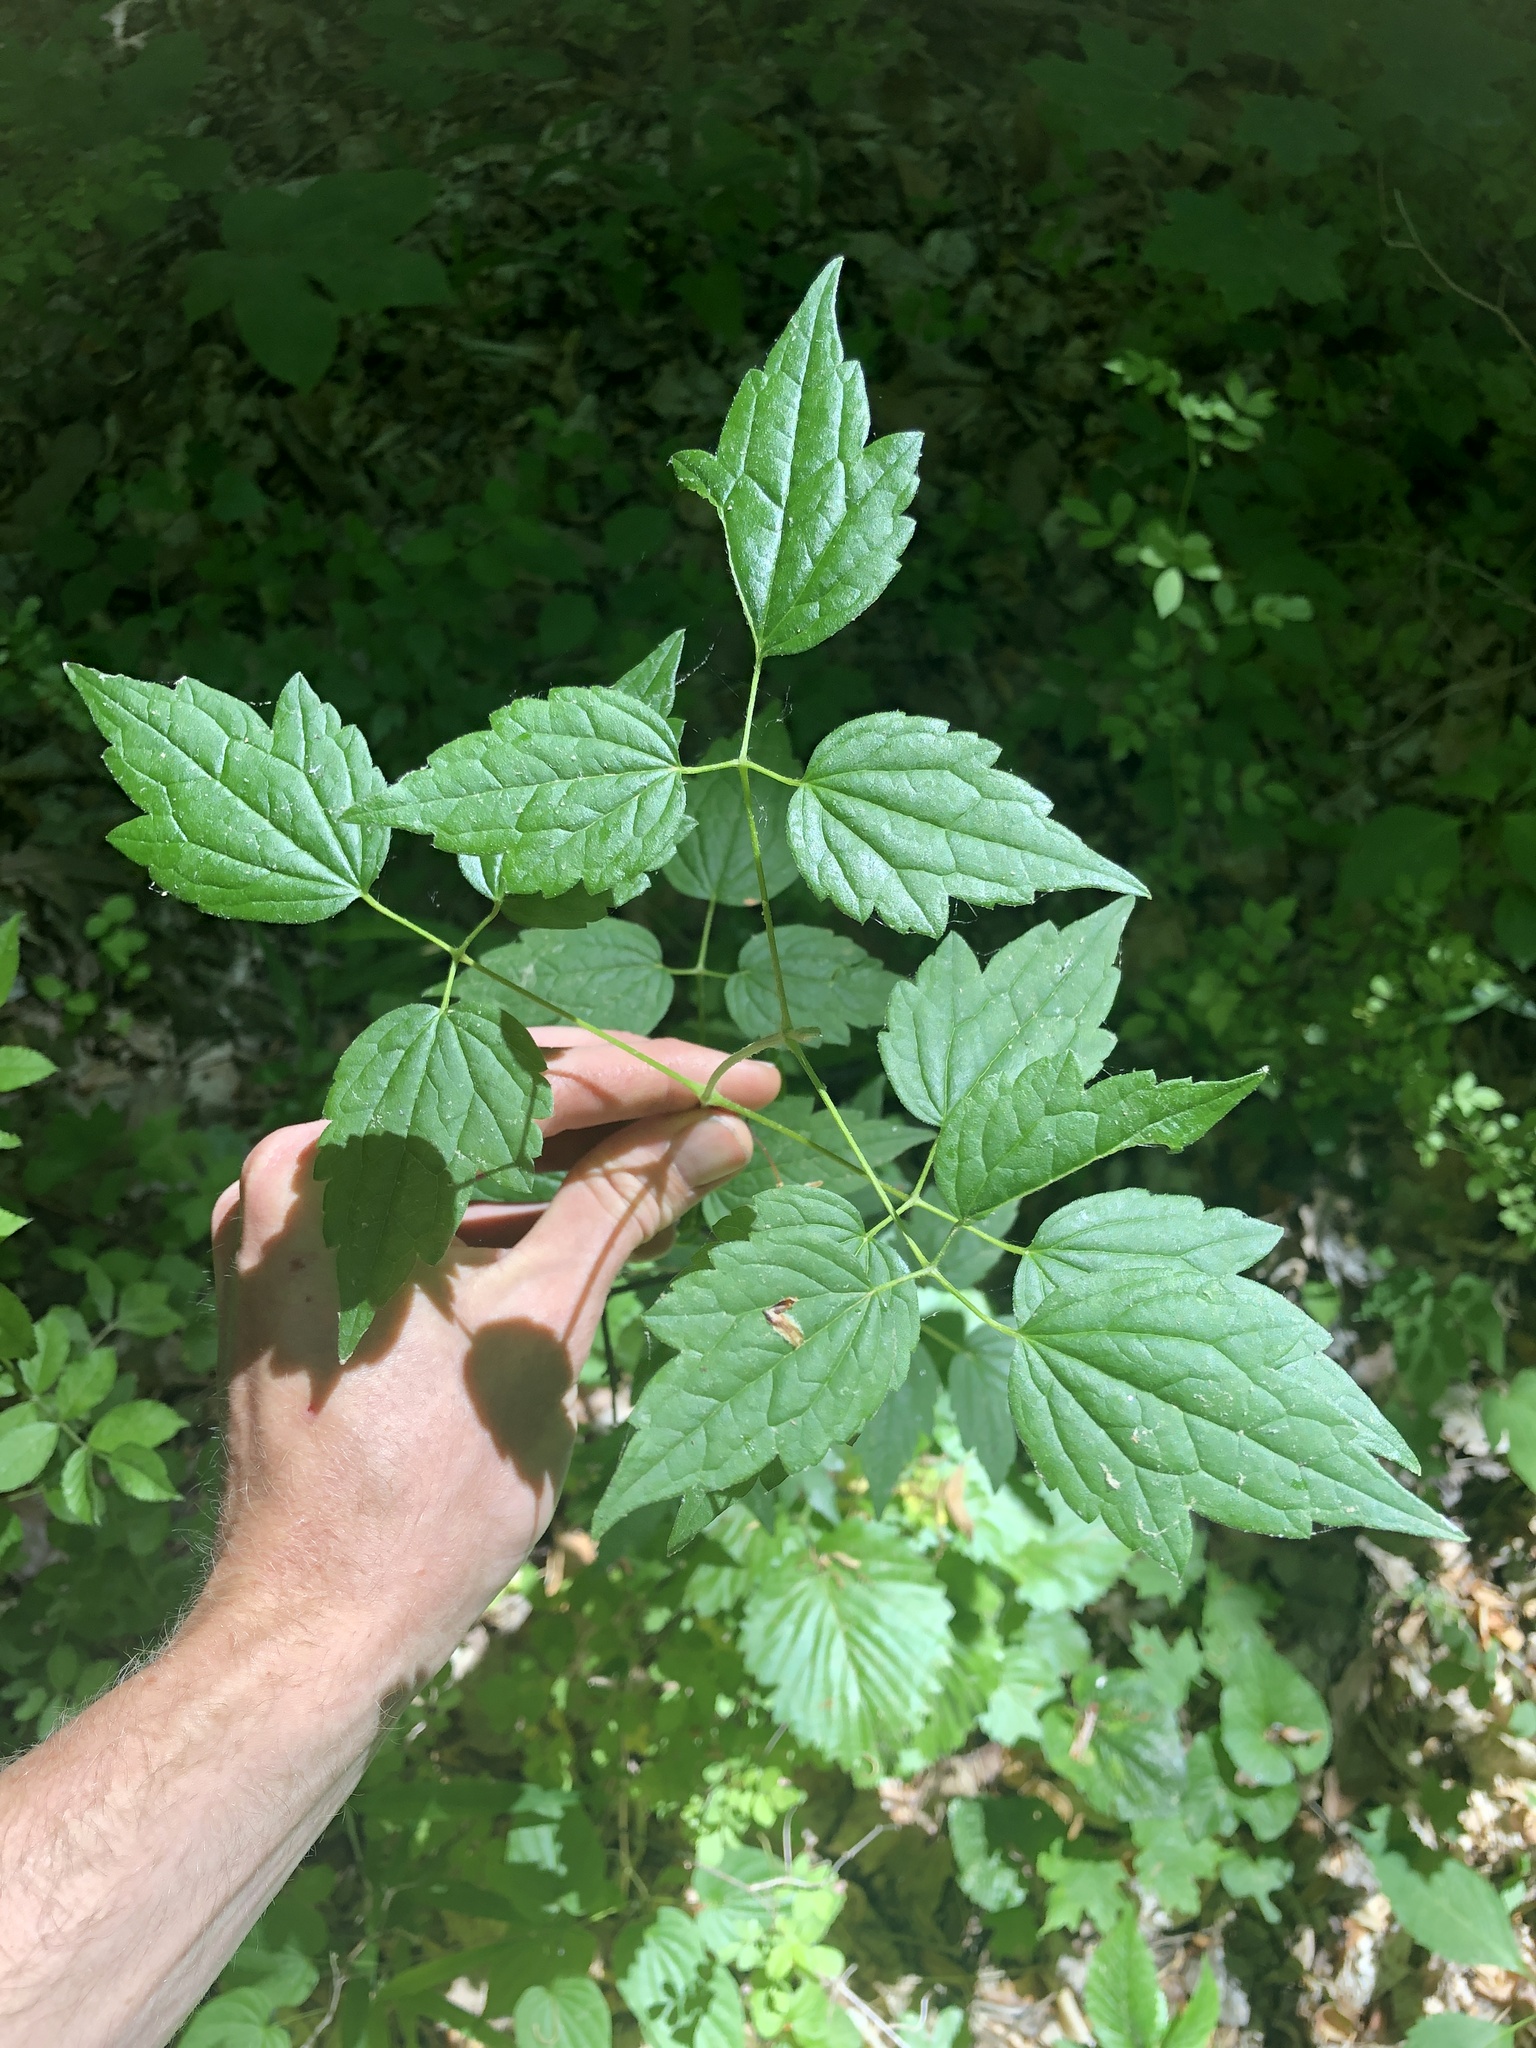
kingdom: Plantae
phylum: Tracheophyta
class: Magnoliopsida
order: Ranunculales
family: Ranunculaceae
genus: Clematis
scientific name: Clematis virginiana
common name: Virgin's-bower
